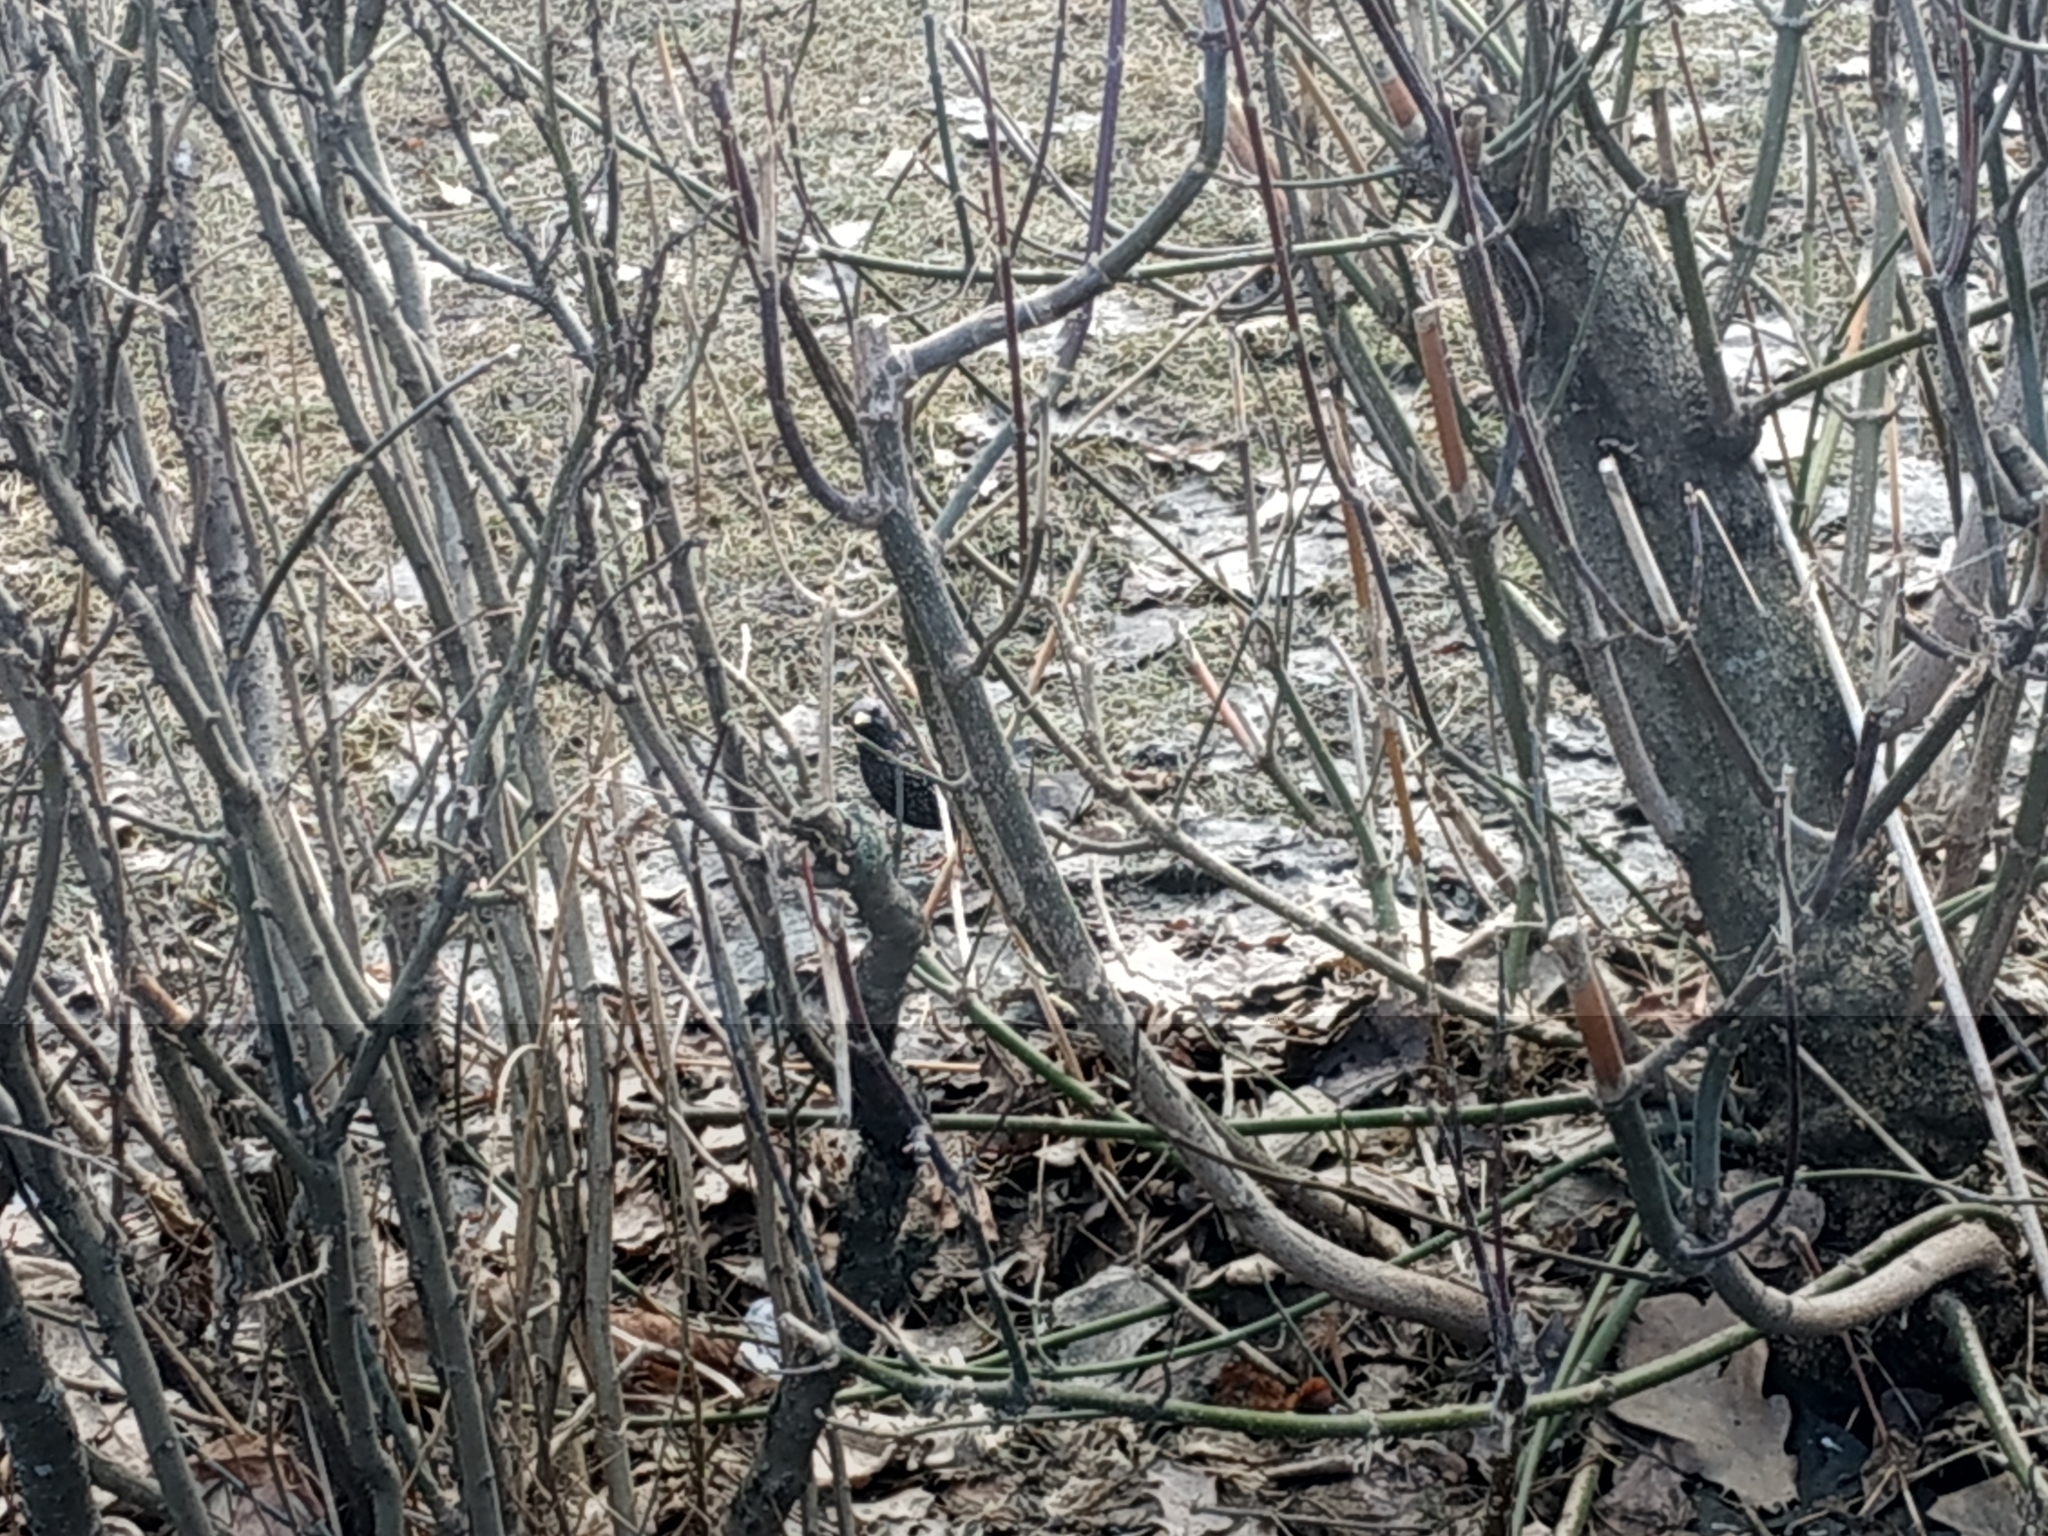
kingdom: Animalia
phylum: Chordata
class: Aves
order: Passeriformes
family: Sturnidae
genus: Sturnus
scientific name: Sturnus vulgaris
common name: Common starling
